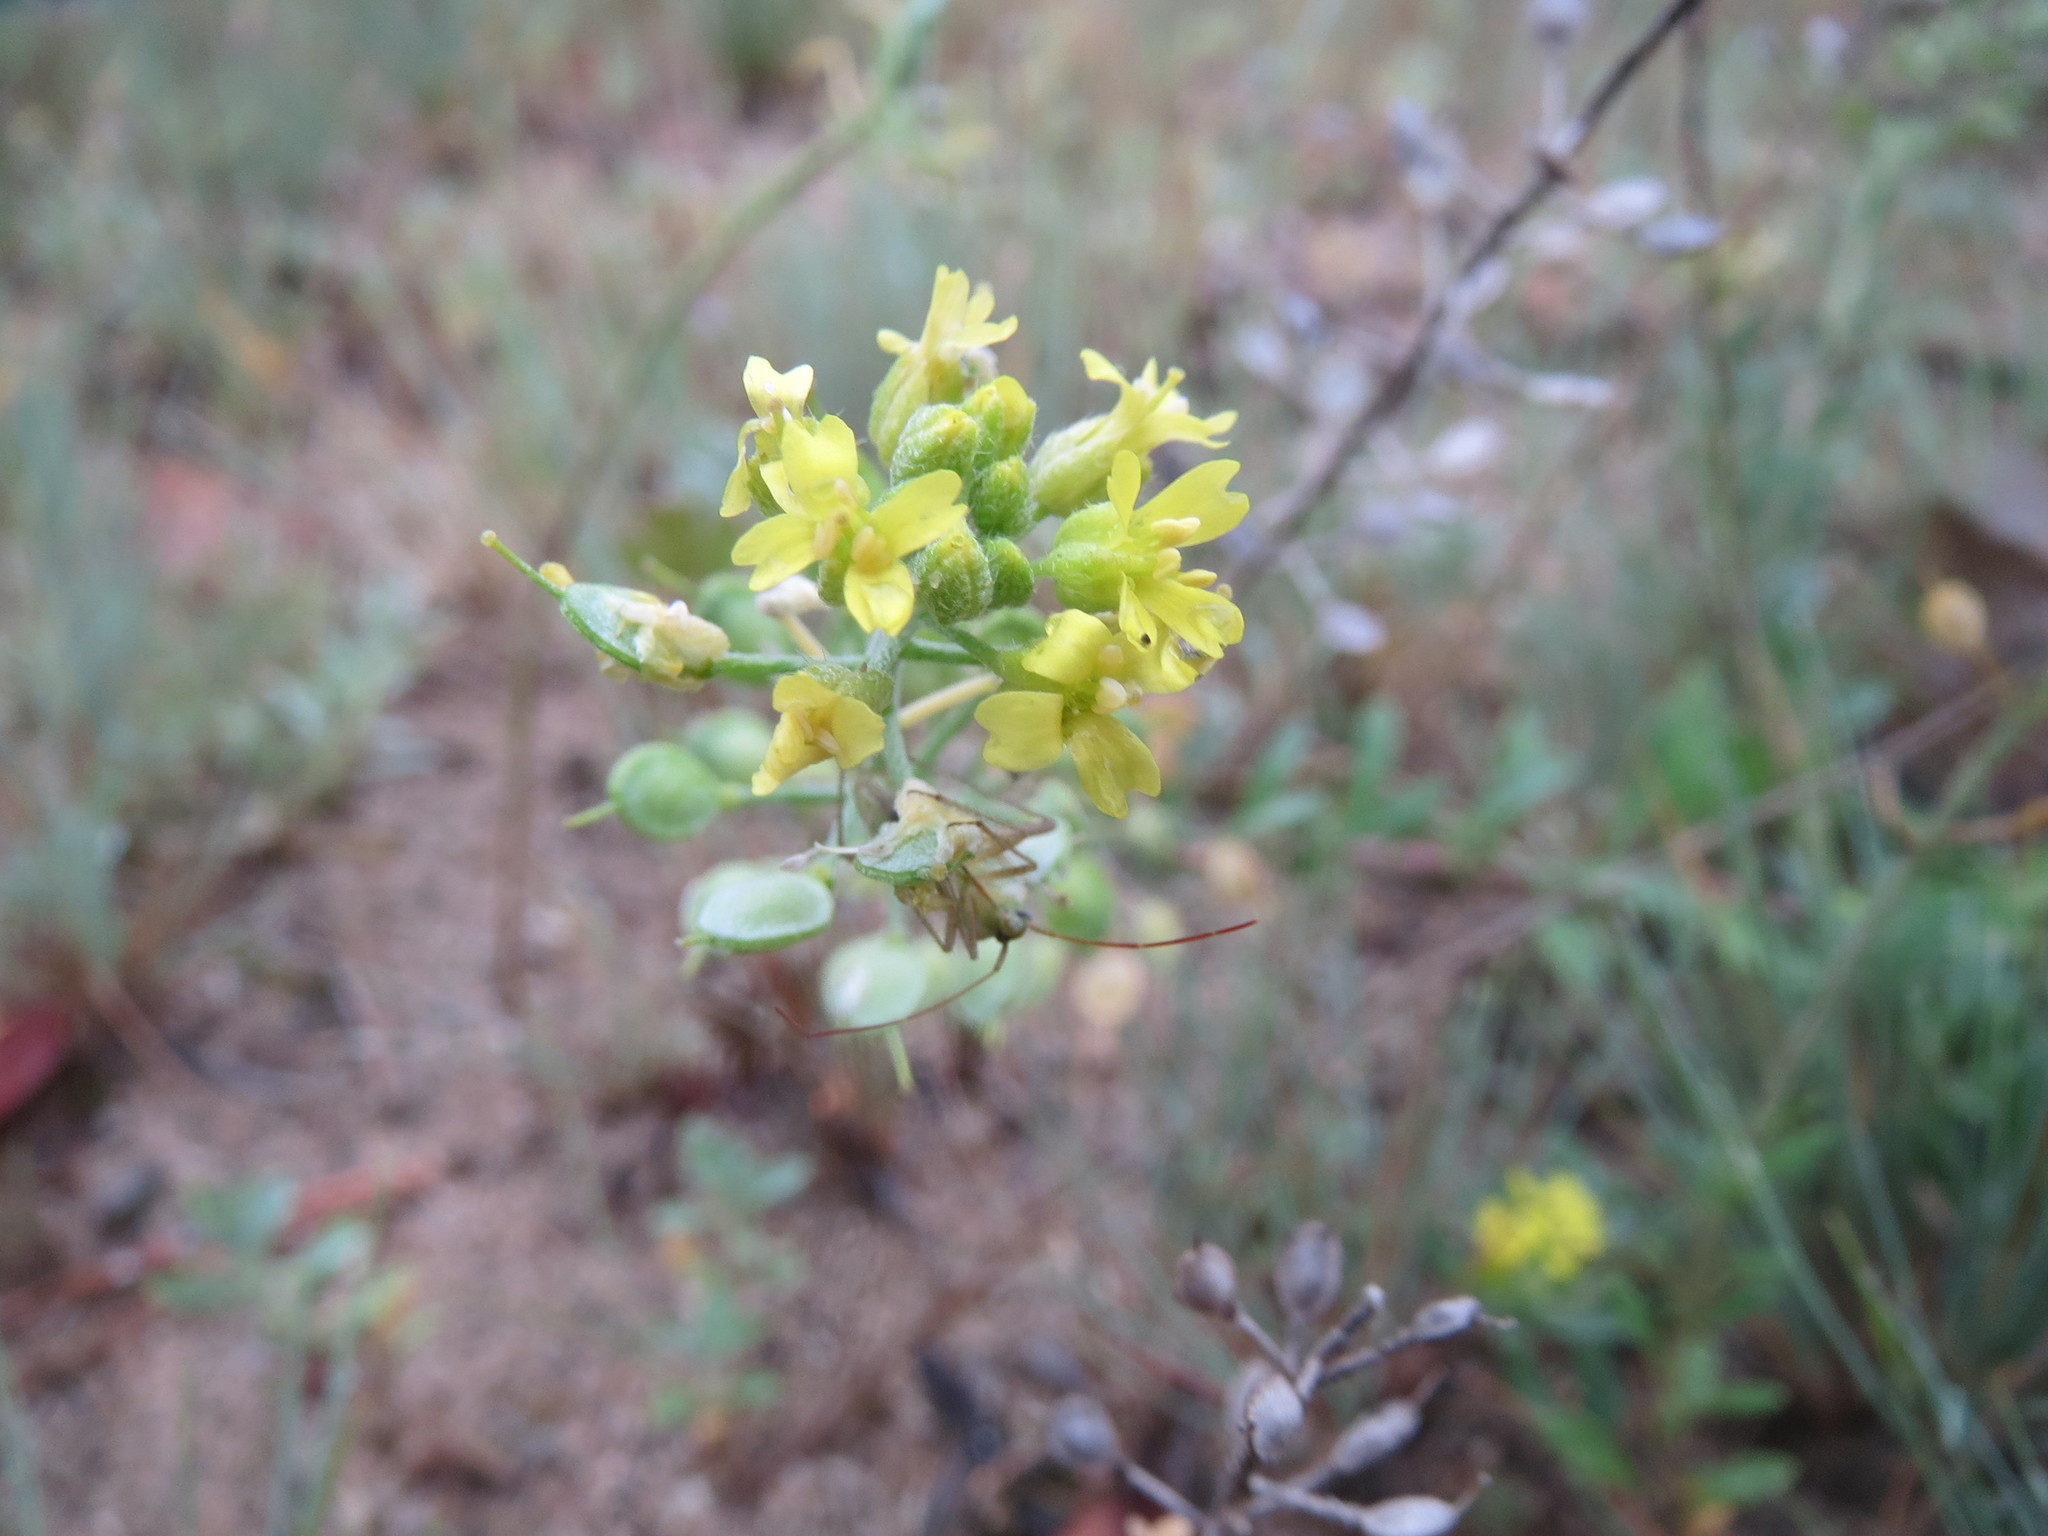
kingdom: Plantae
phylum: Tracheophyta
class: Magnoliopsida
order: Brassicales
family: Brassicaceae
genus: Alyssum
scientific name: Alyssum gmelinii
